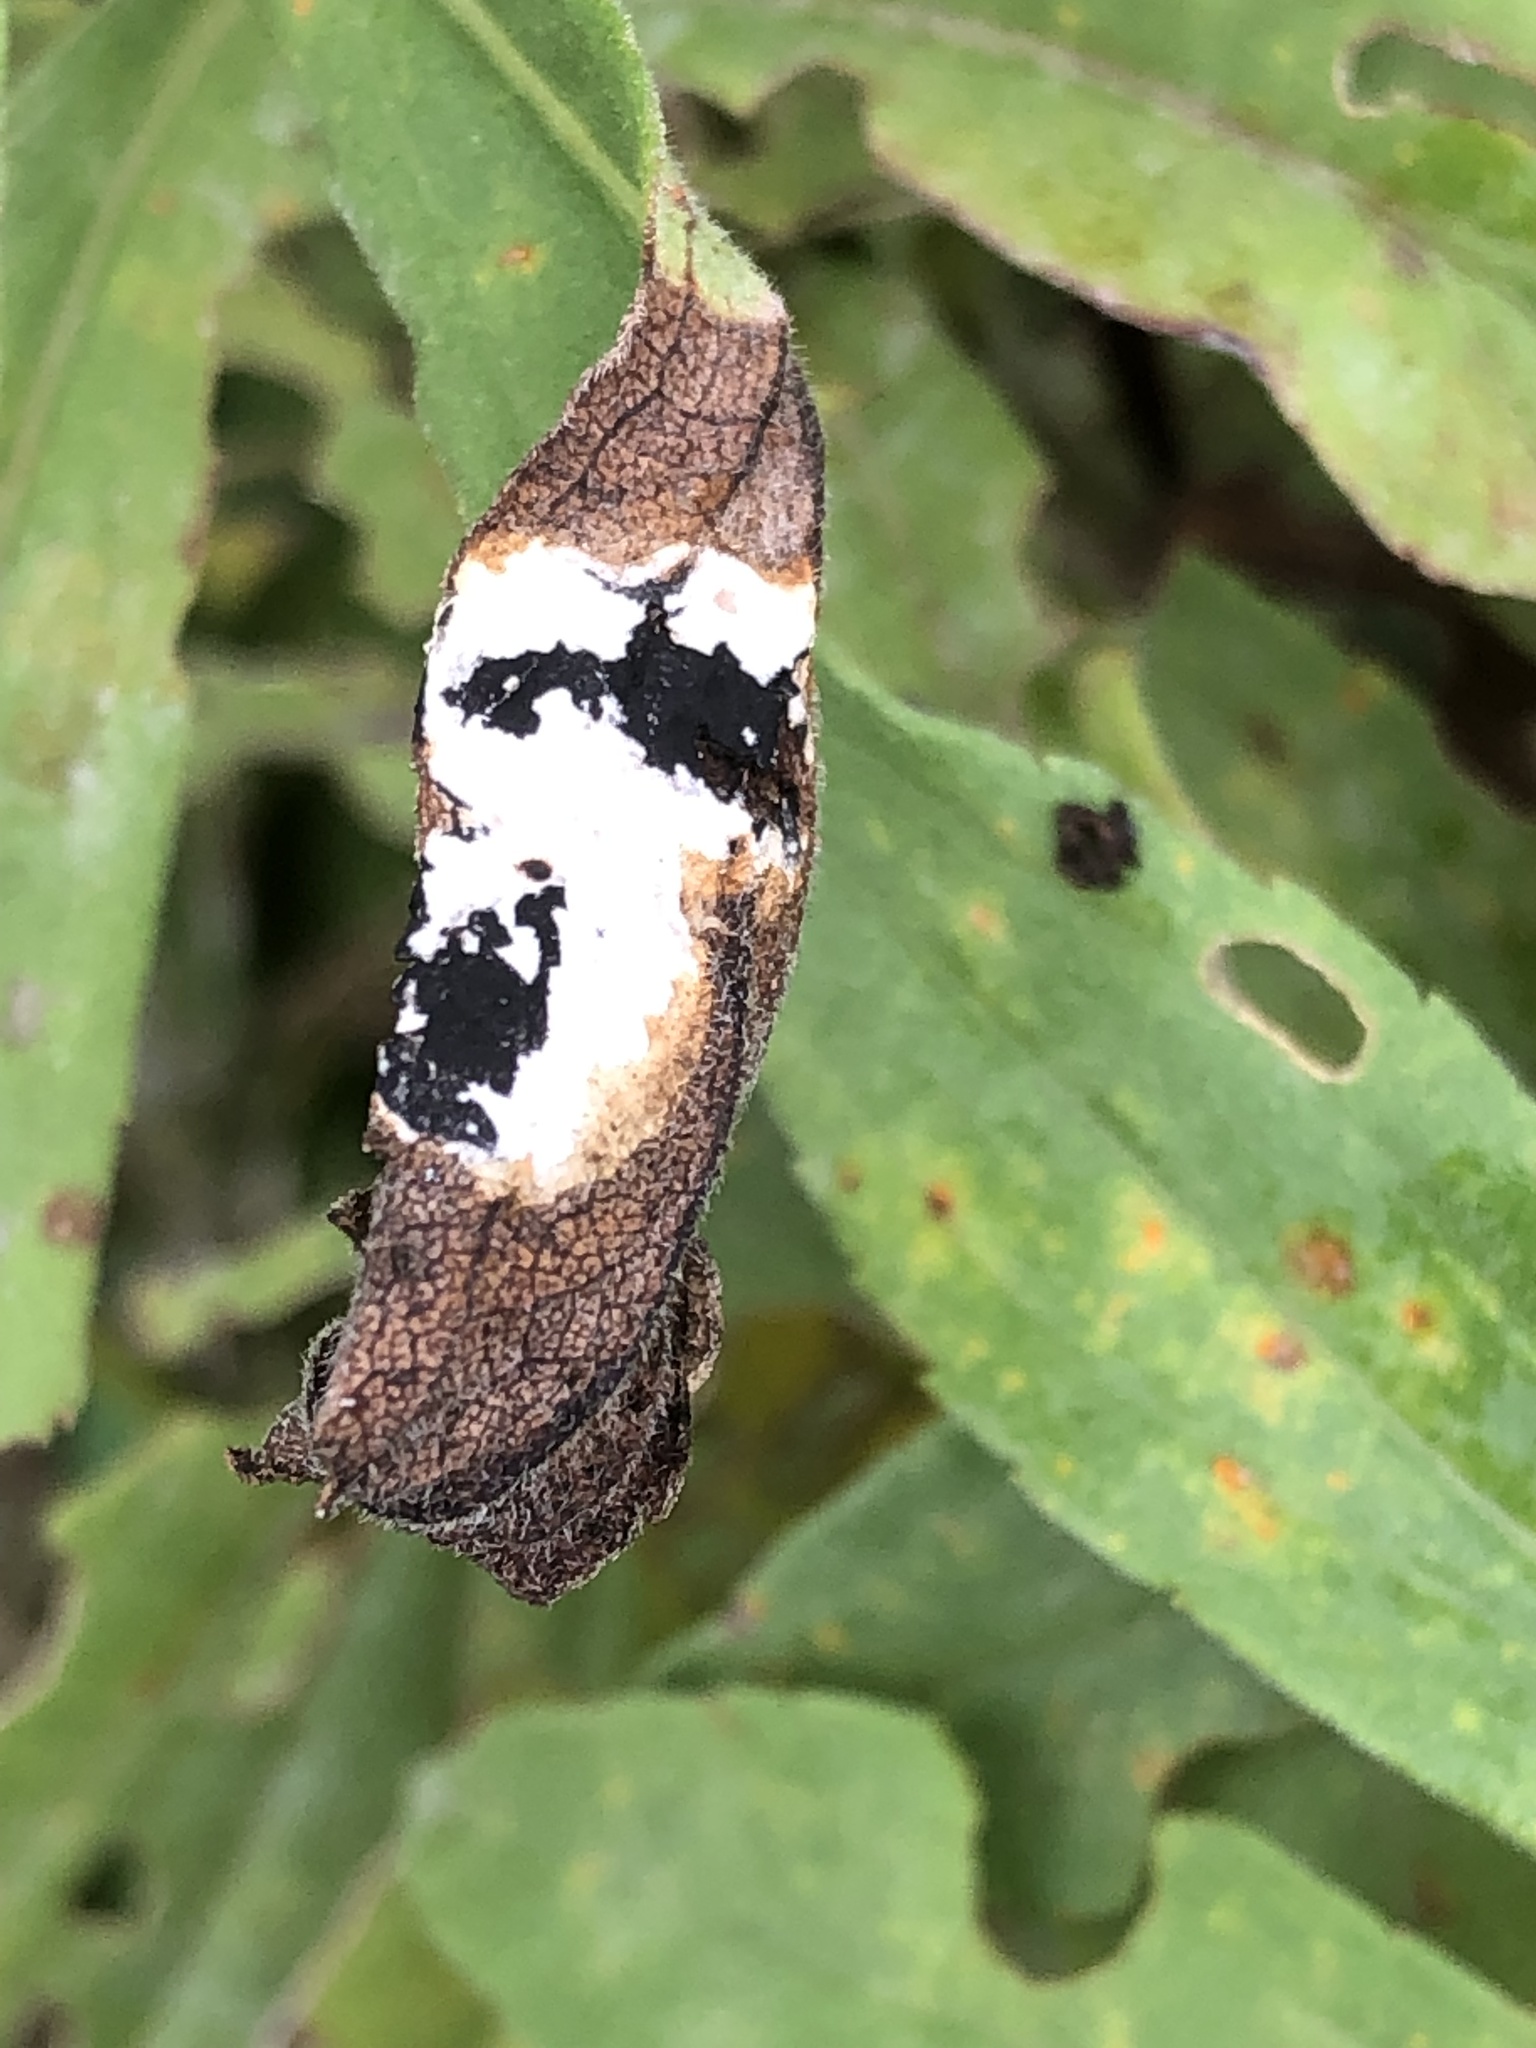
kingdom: Animalia
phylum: Arthropoda
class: Insecta
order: Diptera
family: Cecidomyiidae
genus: Asteromyia
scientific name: Asteromyia carbonifera
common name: Carbonifera goldenrod gall midge
